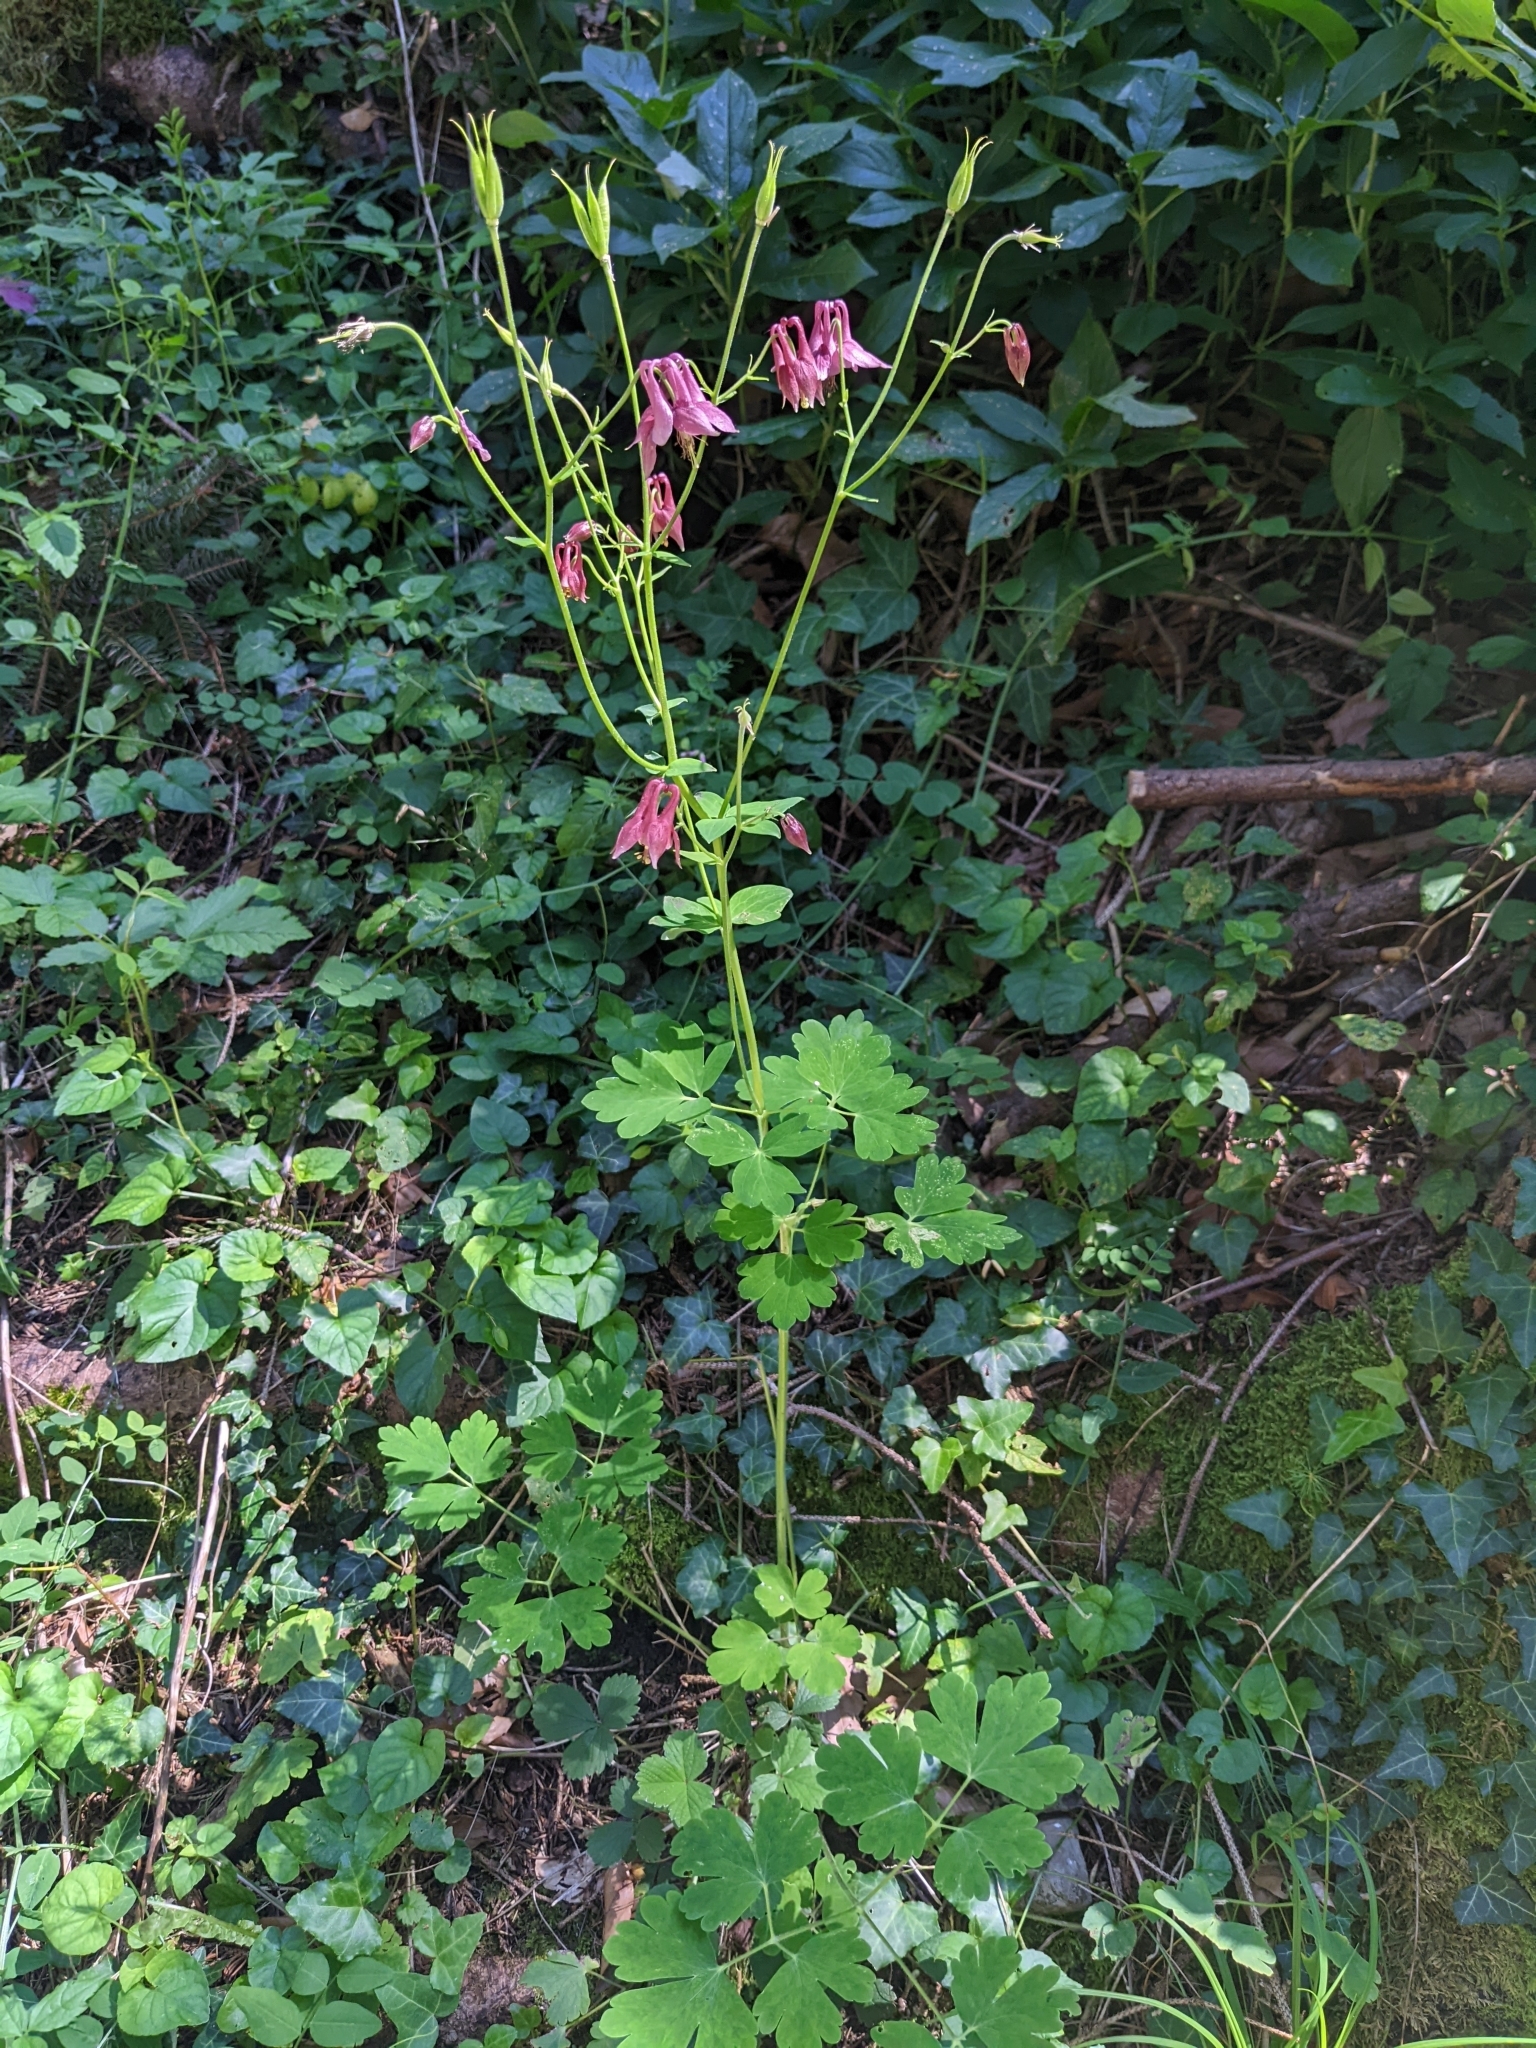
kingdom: Plantae
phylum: Tracheophyta
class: Magnoliopsida
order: Ranunculales
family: Ranunculaceae
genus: Aquilegia
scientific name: Aquilegia atrata
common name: Dark columbine
